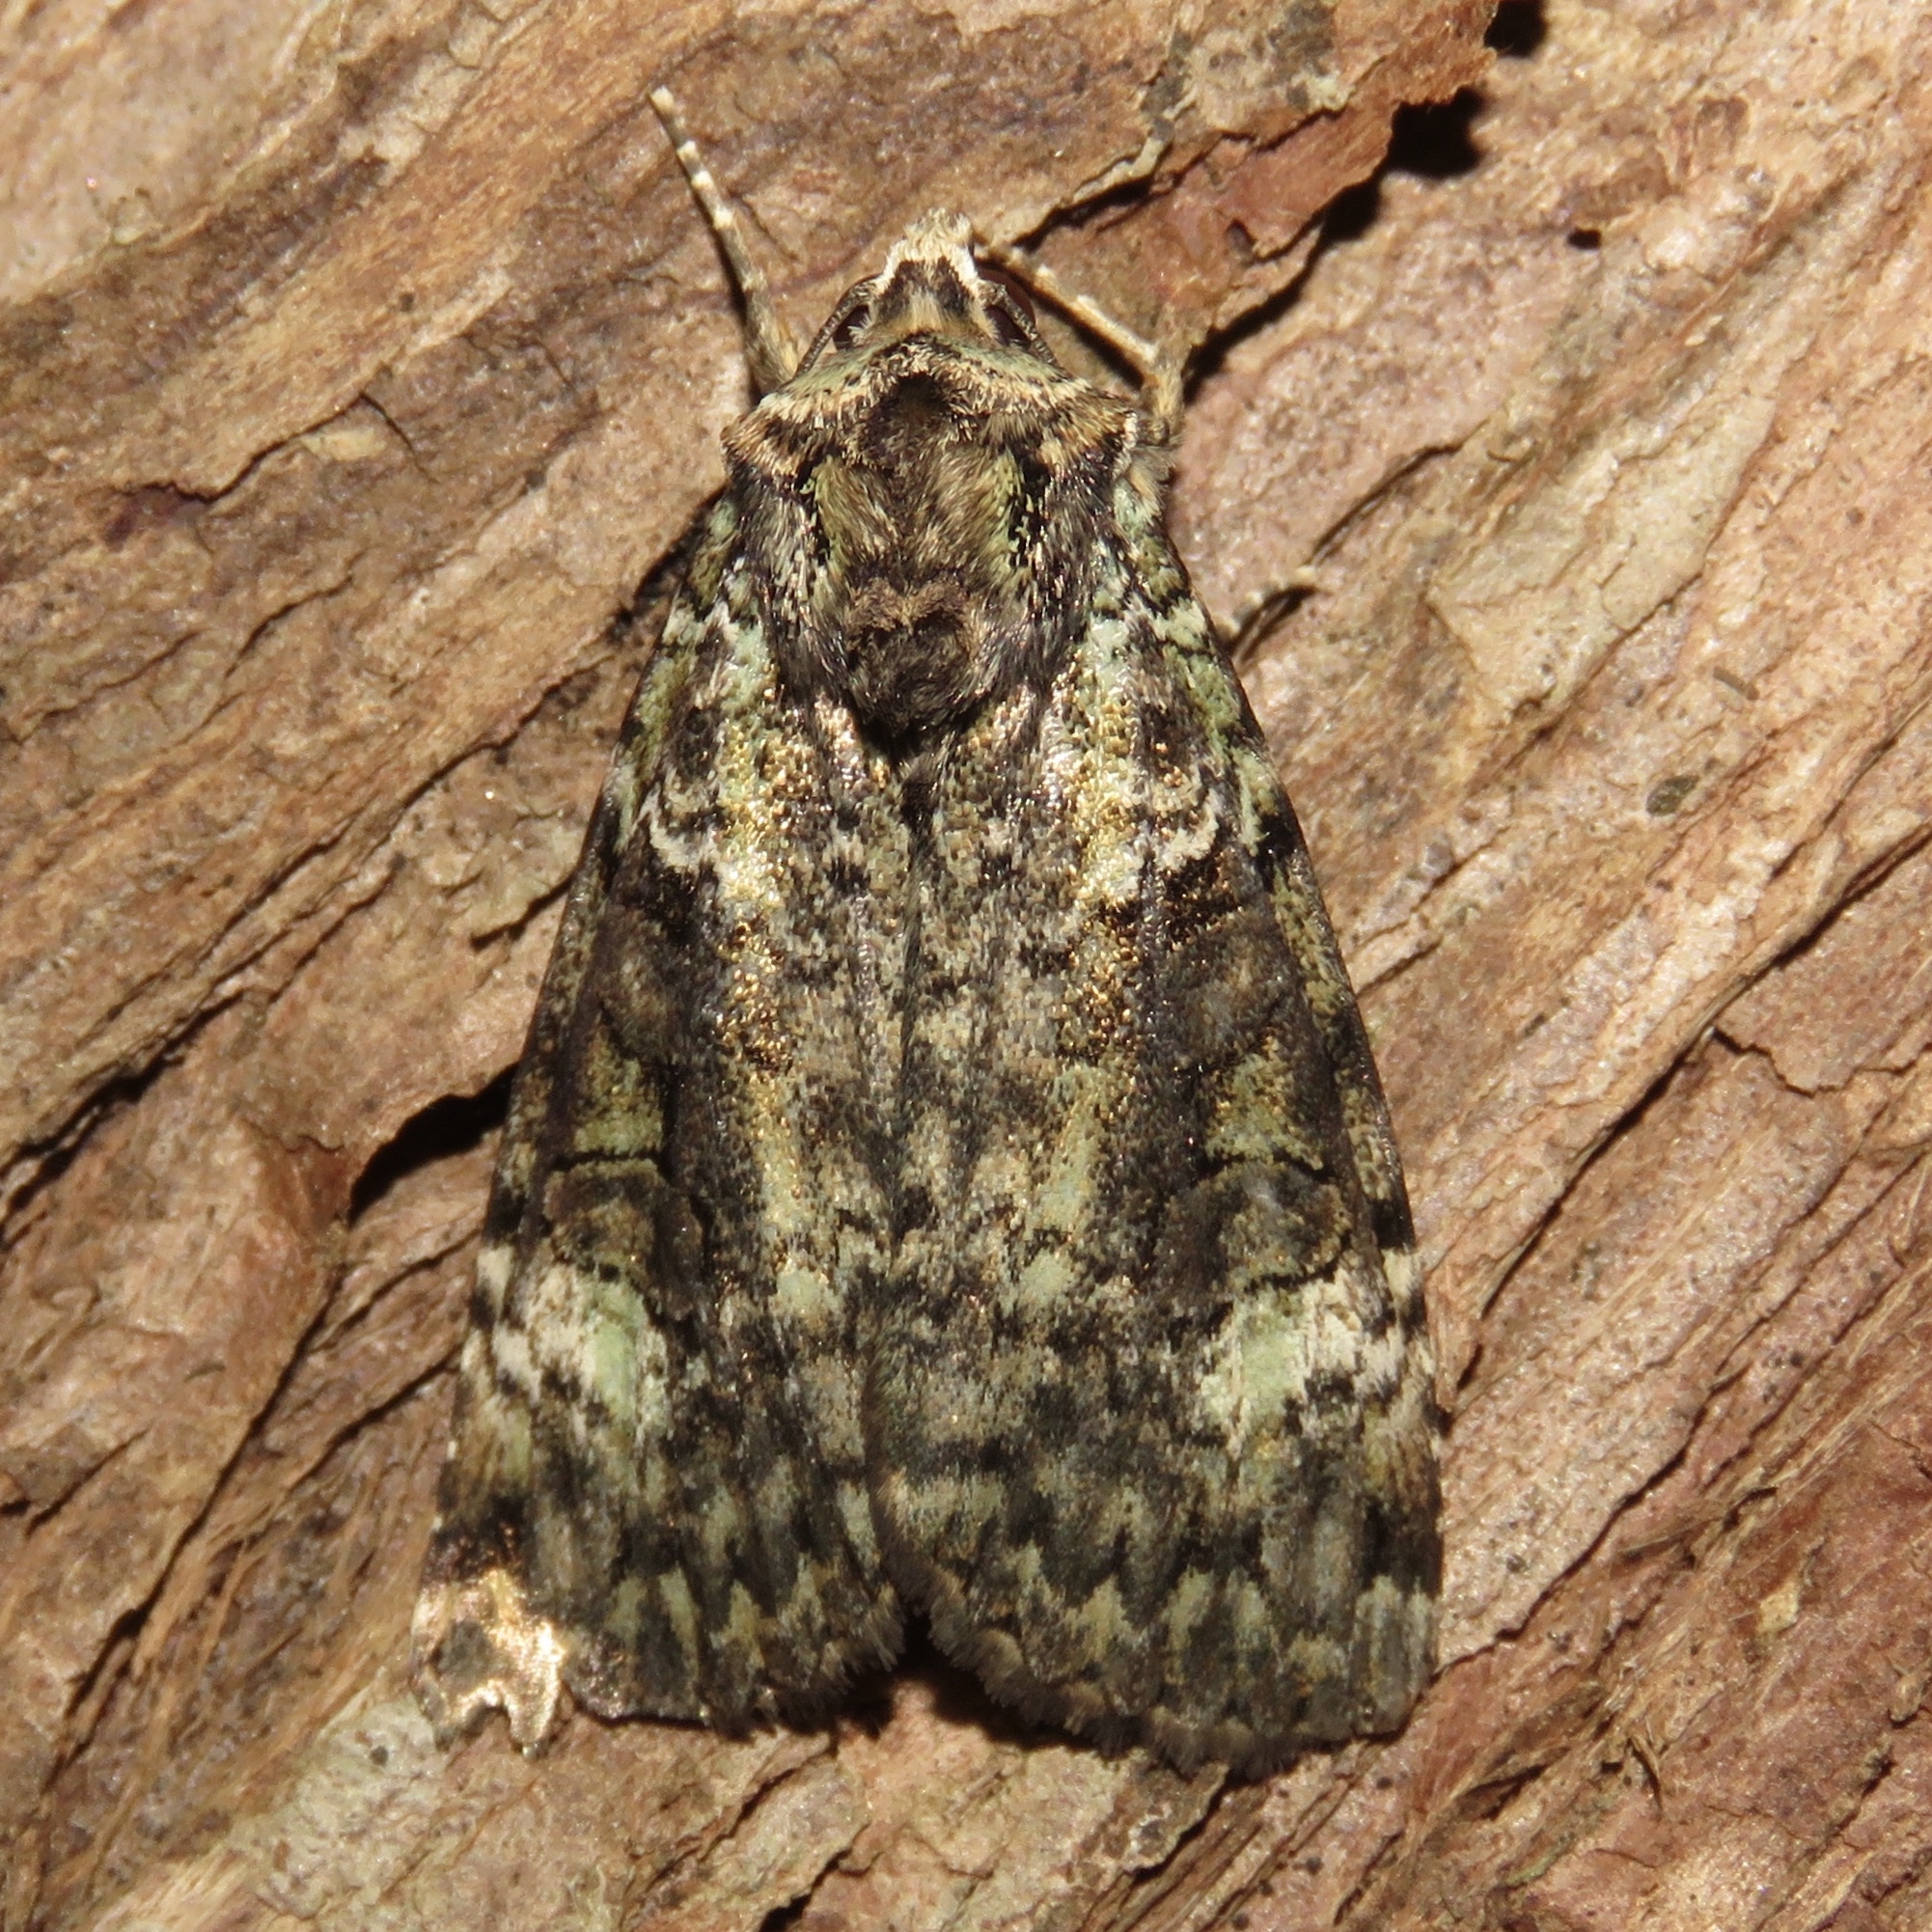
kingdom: Animalia
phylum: Arthropoda
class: Insecta
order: Lepidoptera
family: Noctuidae
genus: Anaplectoides
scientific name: Anaplectoides prasina
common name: Green arches
